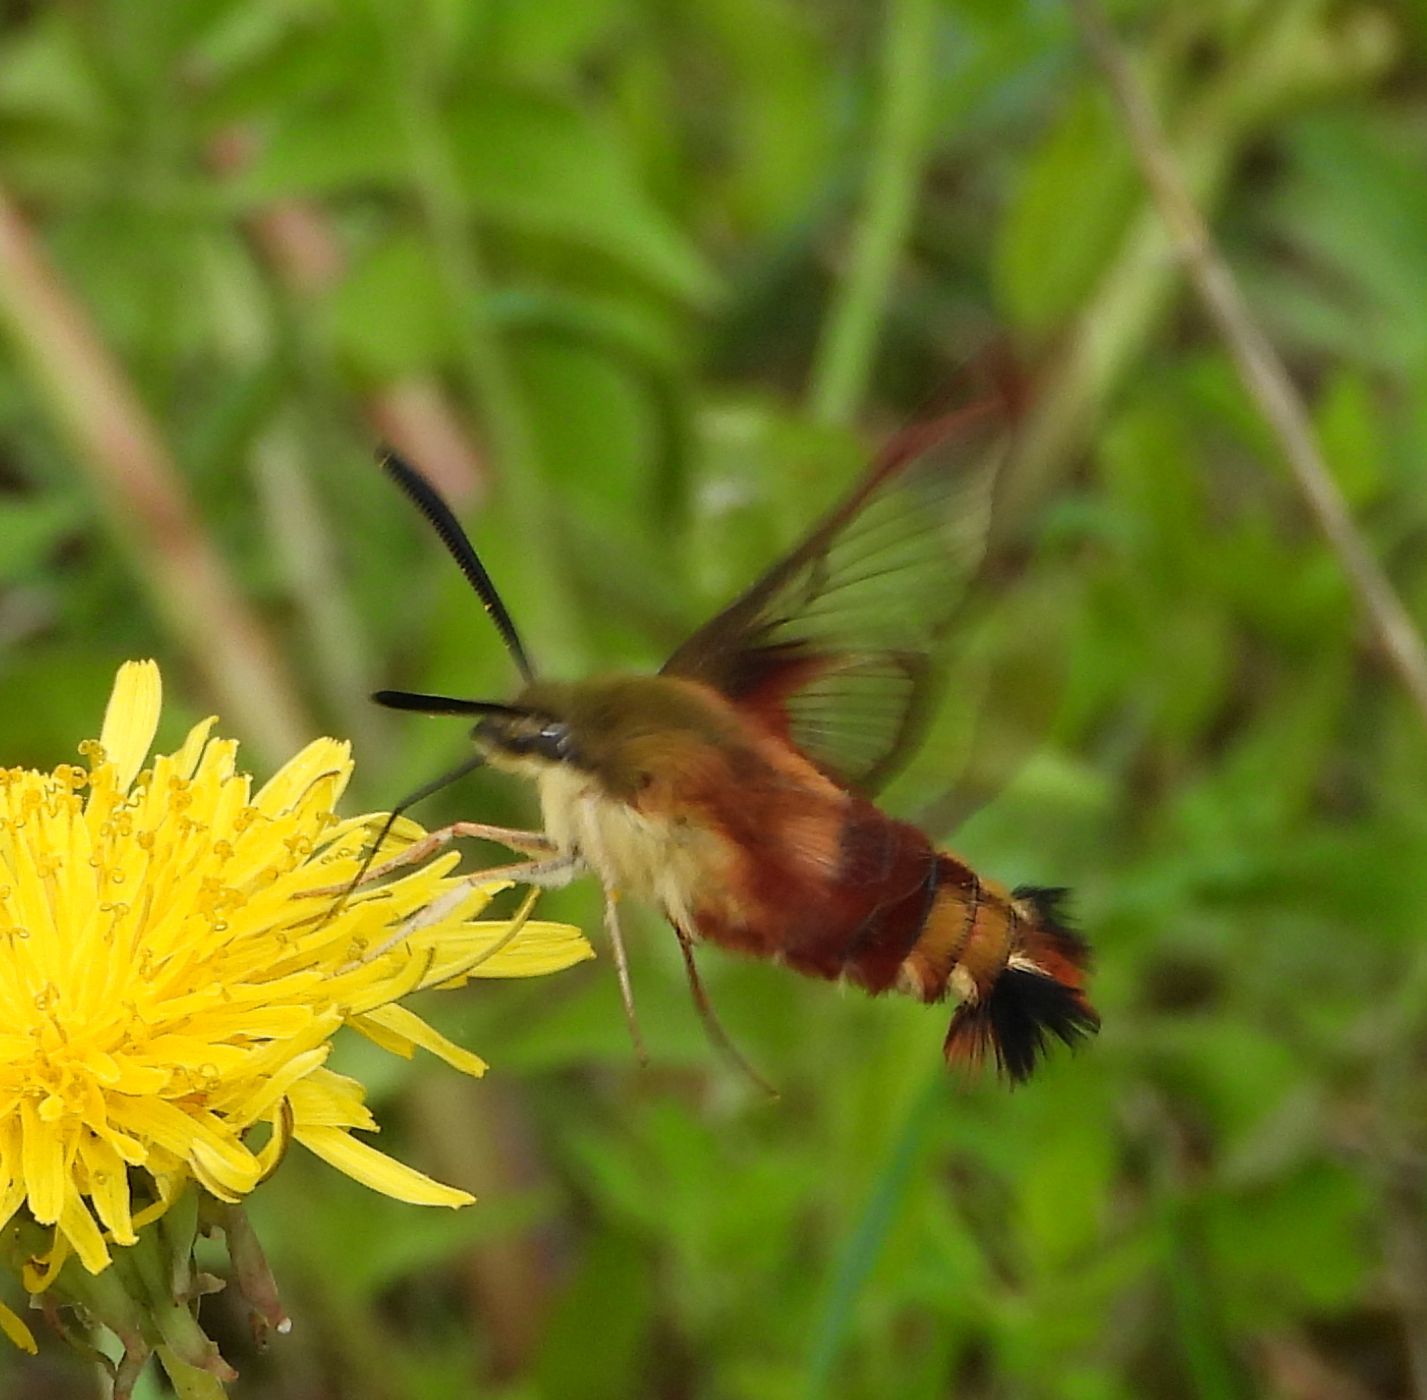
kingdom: Animalia
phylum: Arthropoda
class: Insecta
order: Lepidoptera
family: Sphingidae
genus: Hemaris
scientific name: Hemaris thysbe
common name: Common clear-wing
